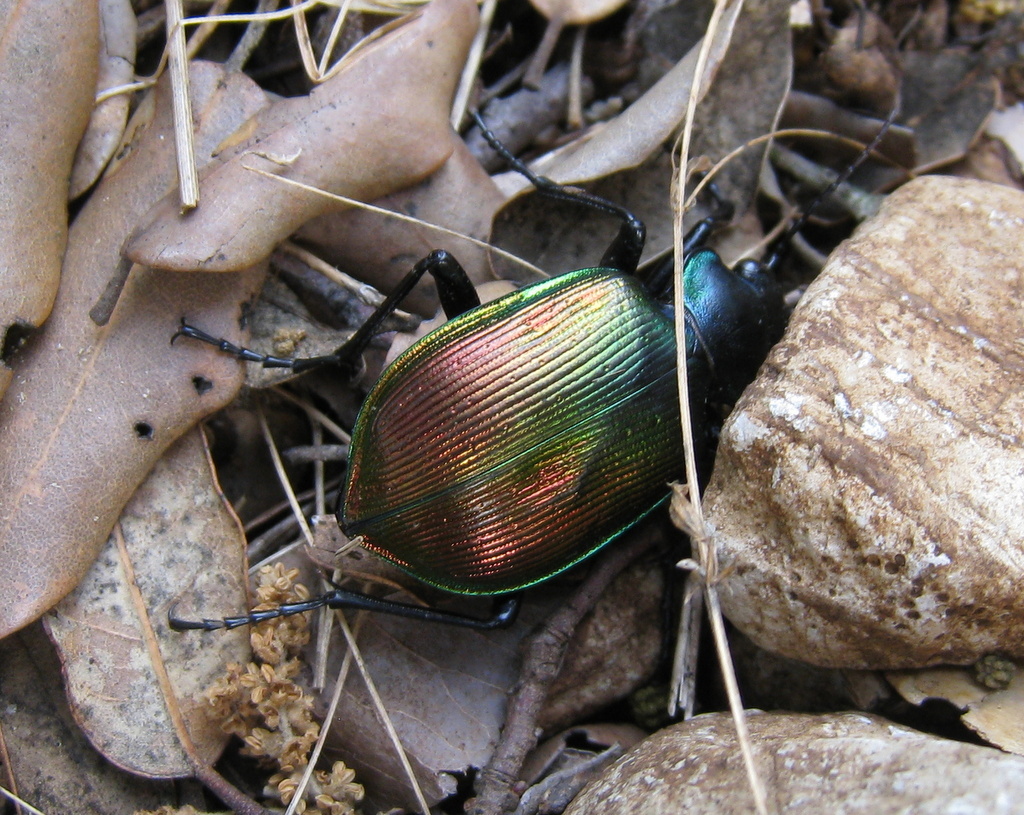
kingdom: Animalia
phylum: Arthropoda
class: Insecta
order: Coleoptera
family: Carabidae
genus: Calosoma
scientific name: Calosoma sycophanta
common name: Forest caterpillar hunter
